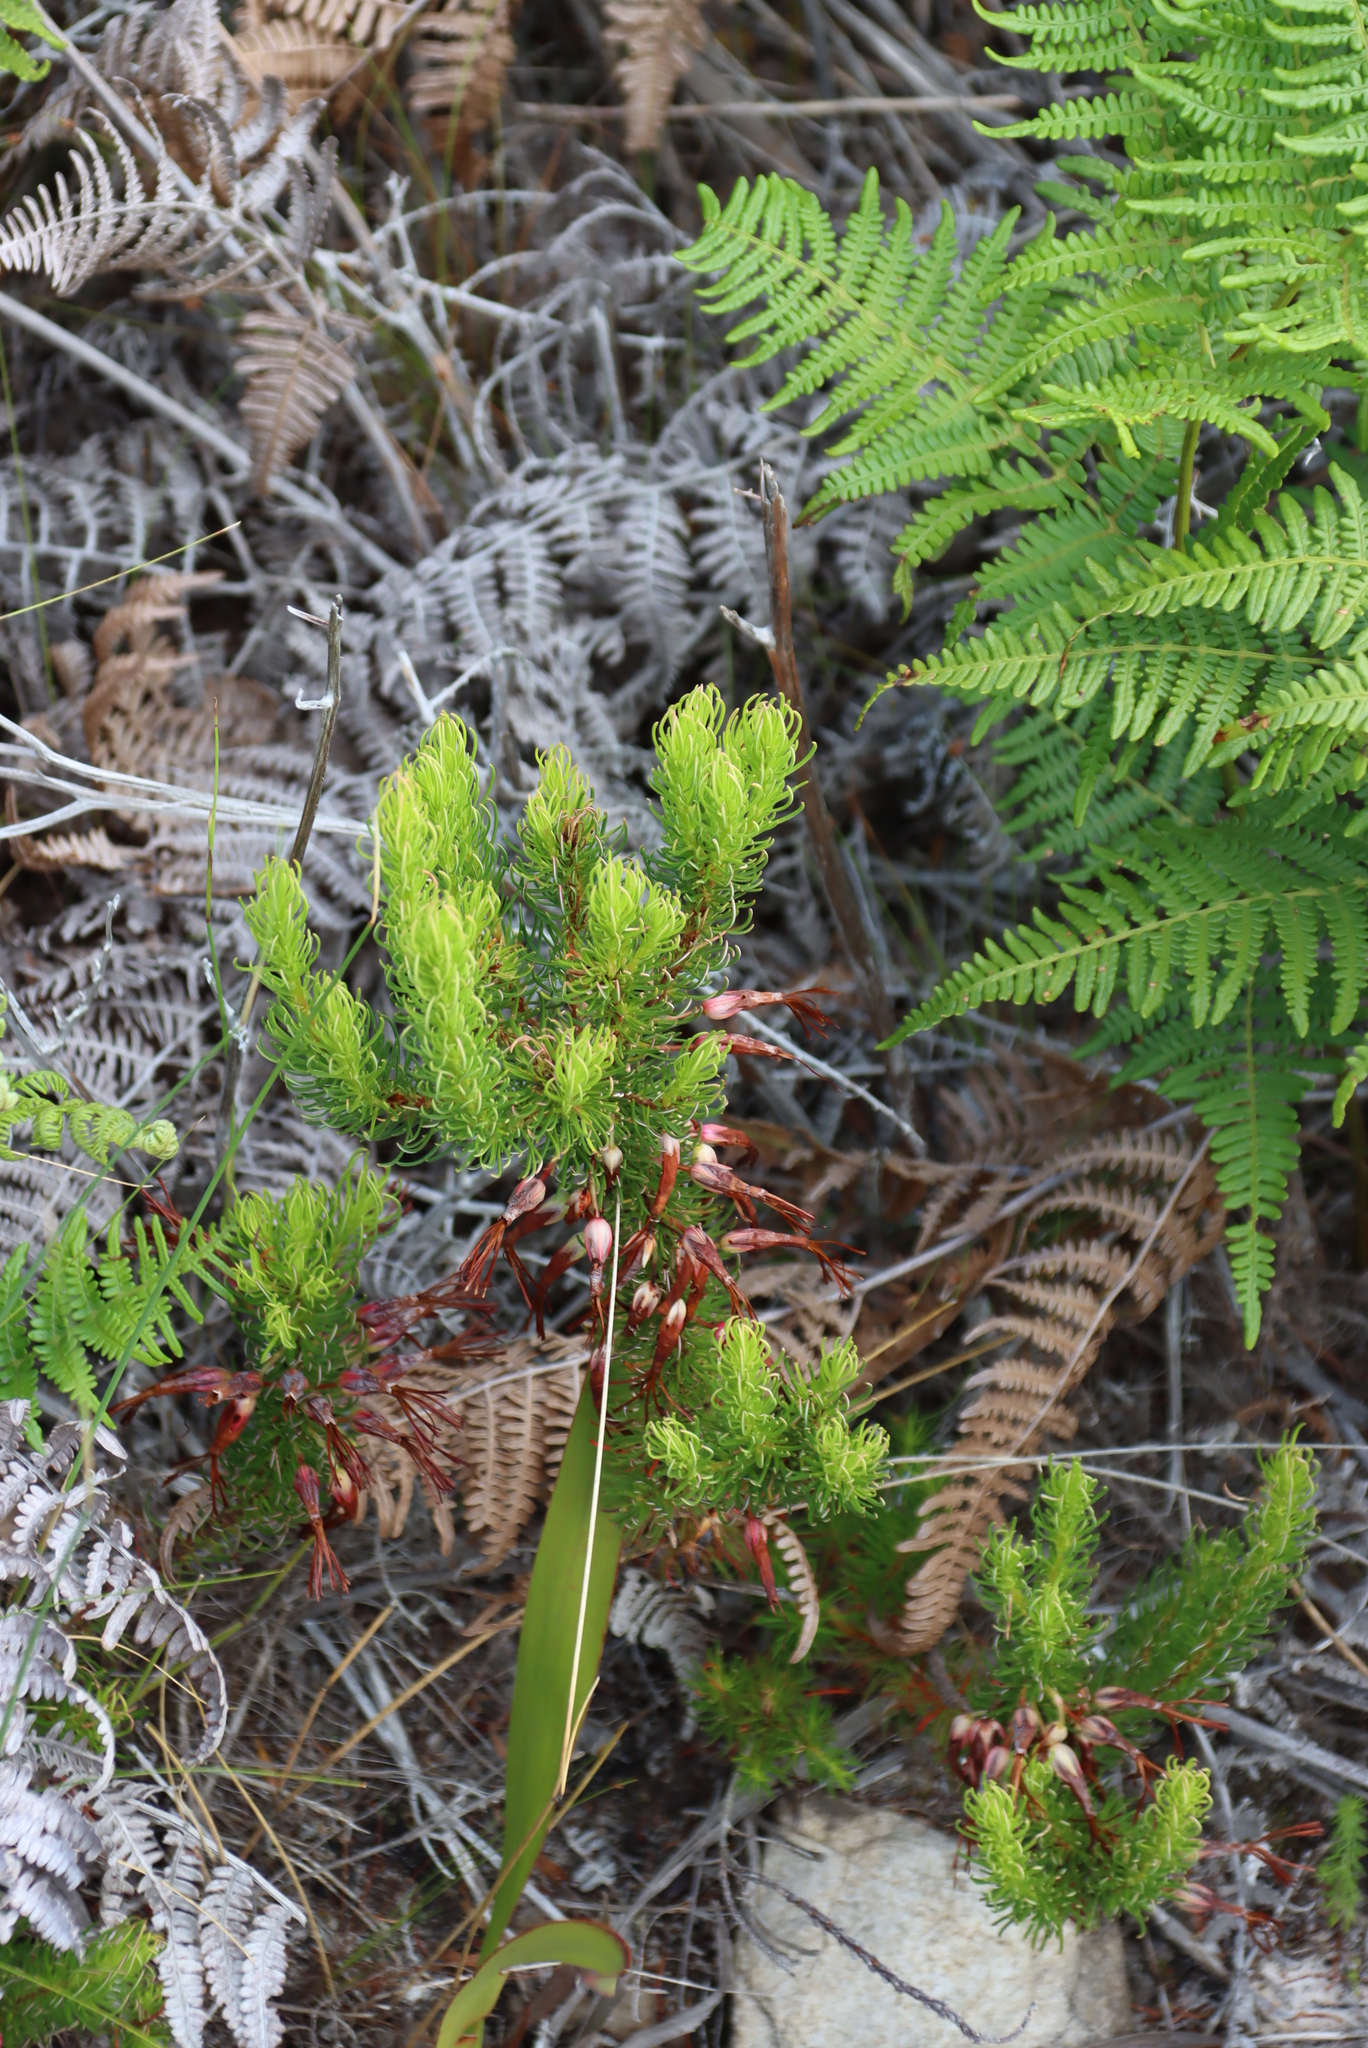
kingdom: Plantae
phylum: Tracheophyta
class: Magnoliopsida
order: Ericales
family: Ericaceae
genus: Erica
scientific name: Erica plukenetii
